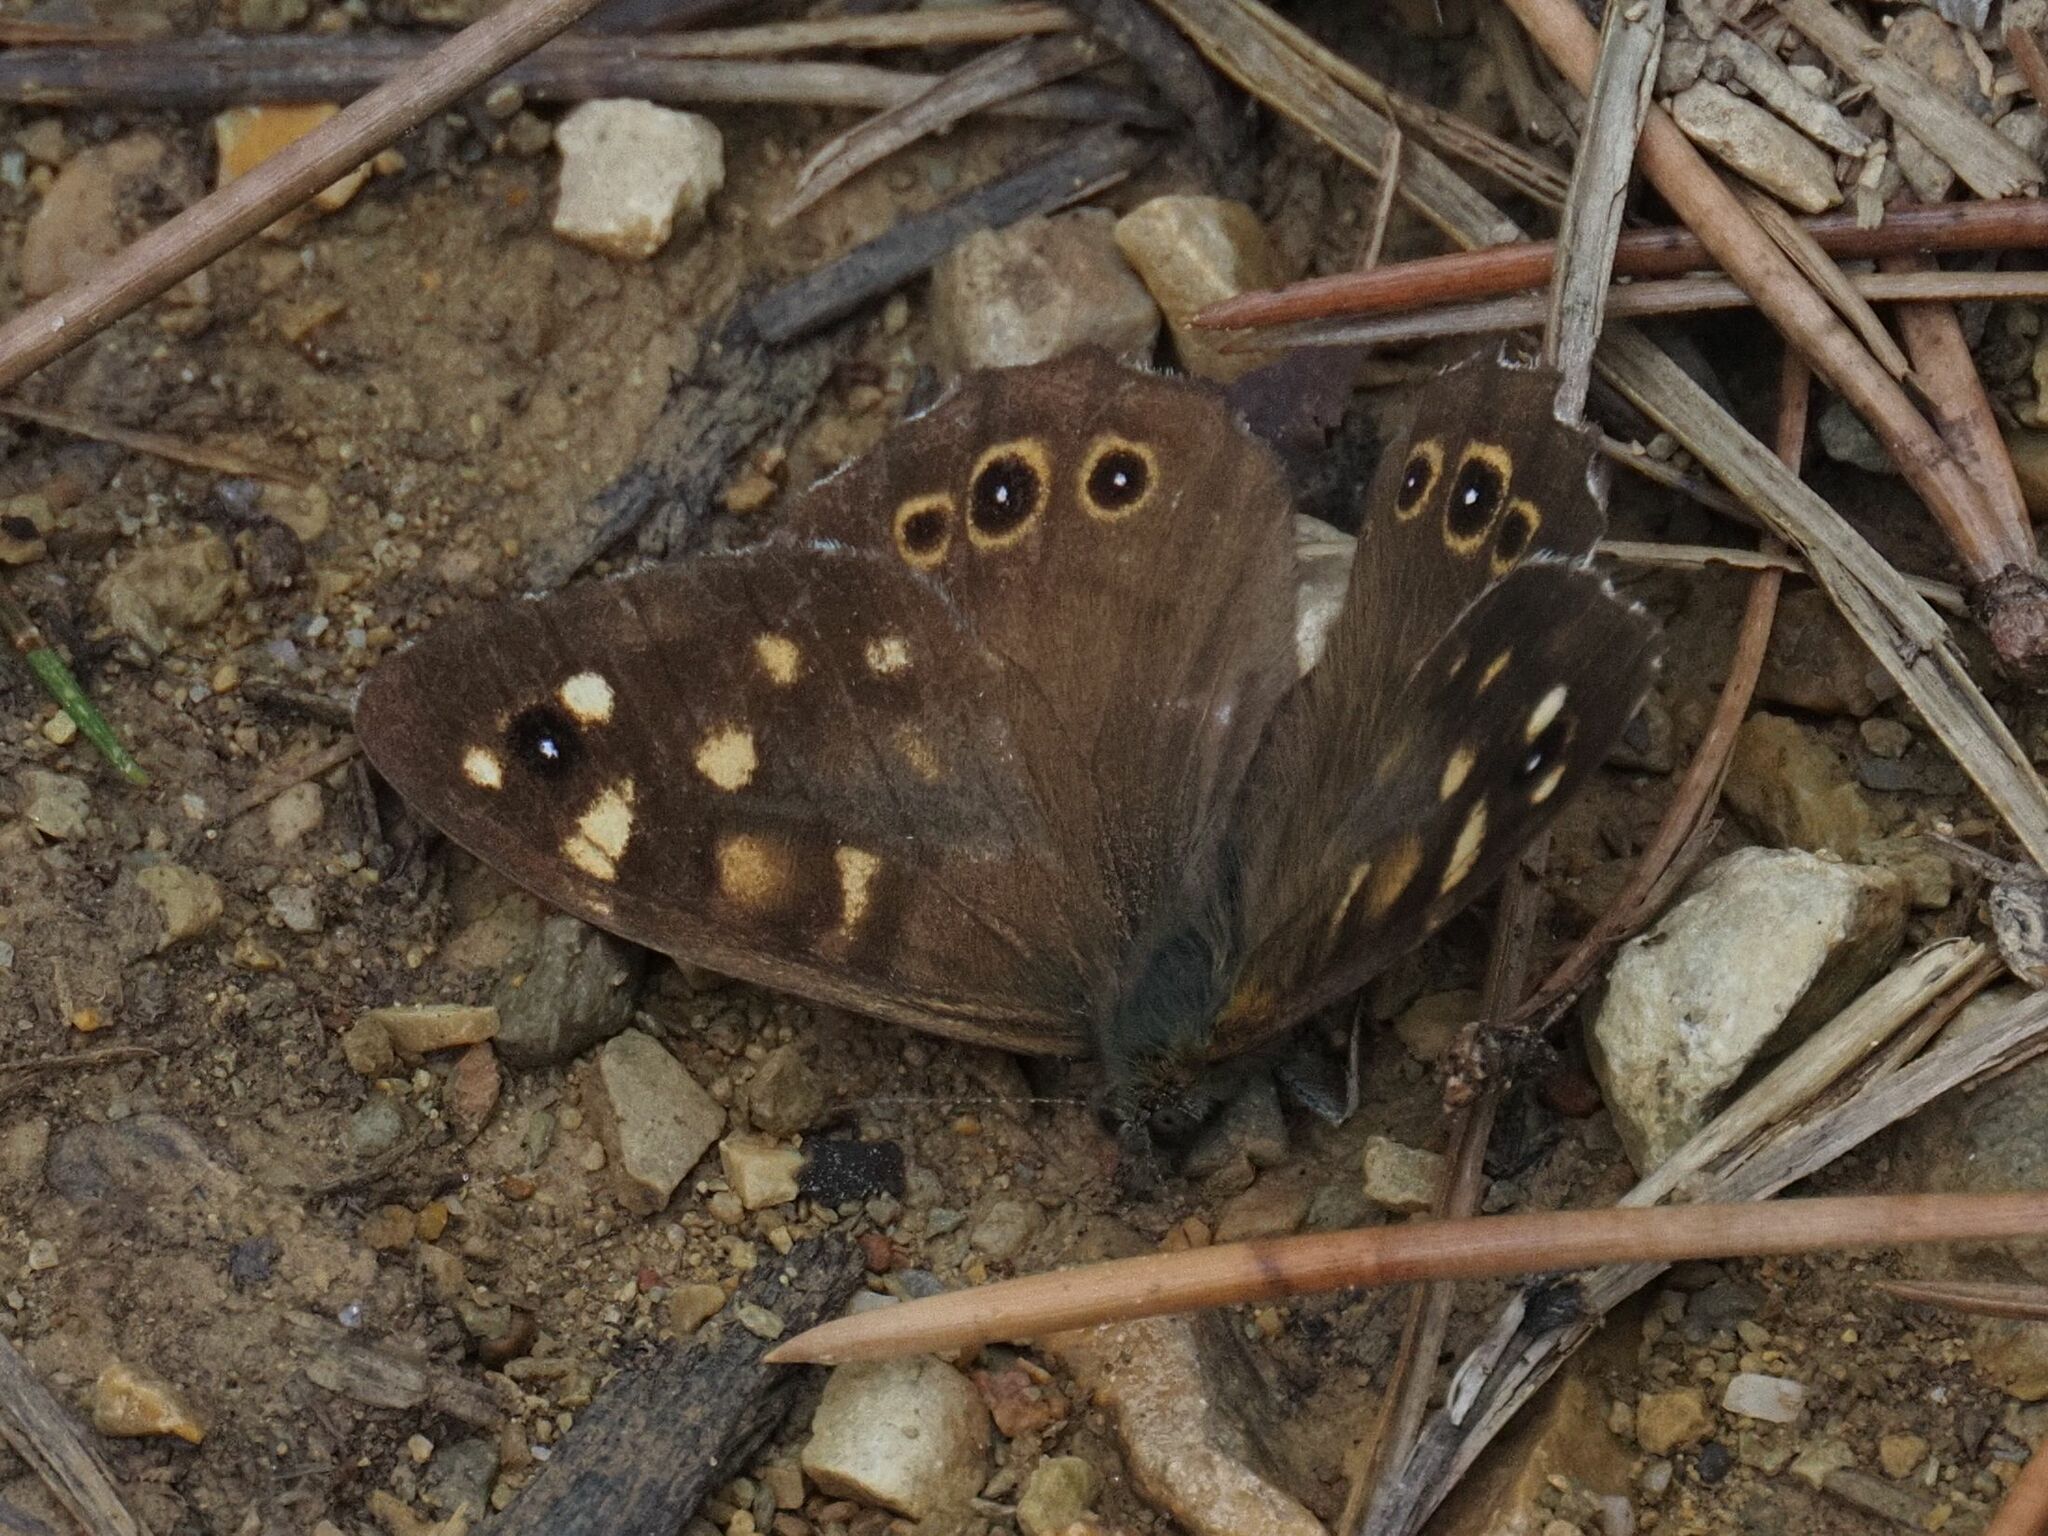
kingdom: Animalia
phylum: Arthropoda
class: Insecta
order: Lepidoptera
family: Nymphalidae
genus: Pararge
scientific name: Pararge aegeria
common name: Speckled wood
